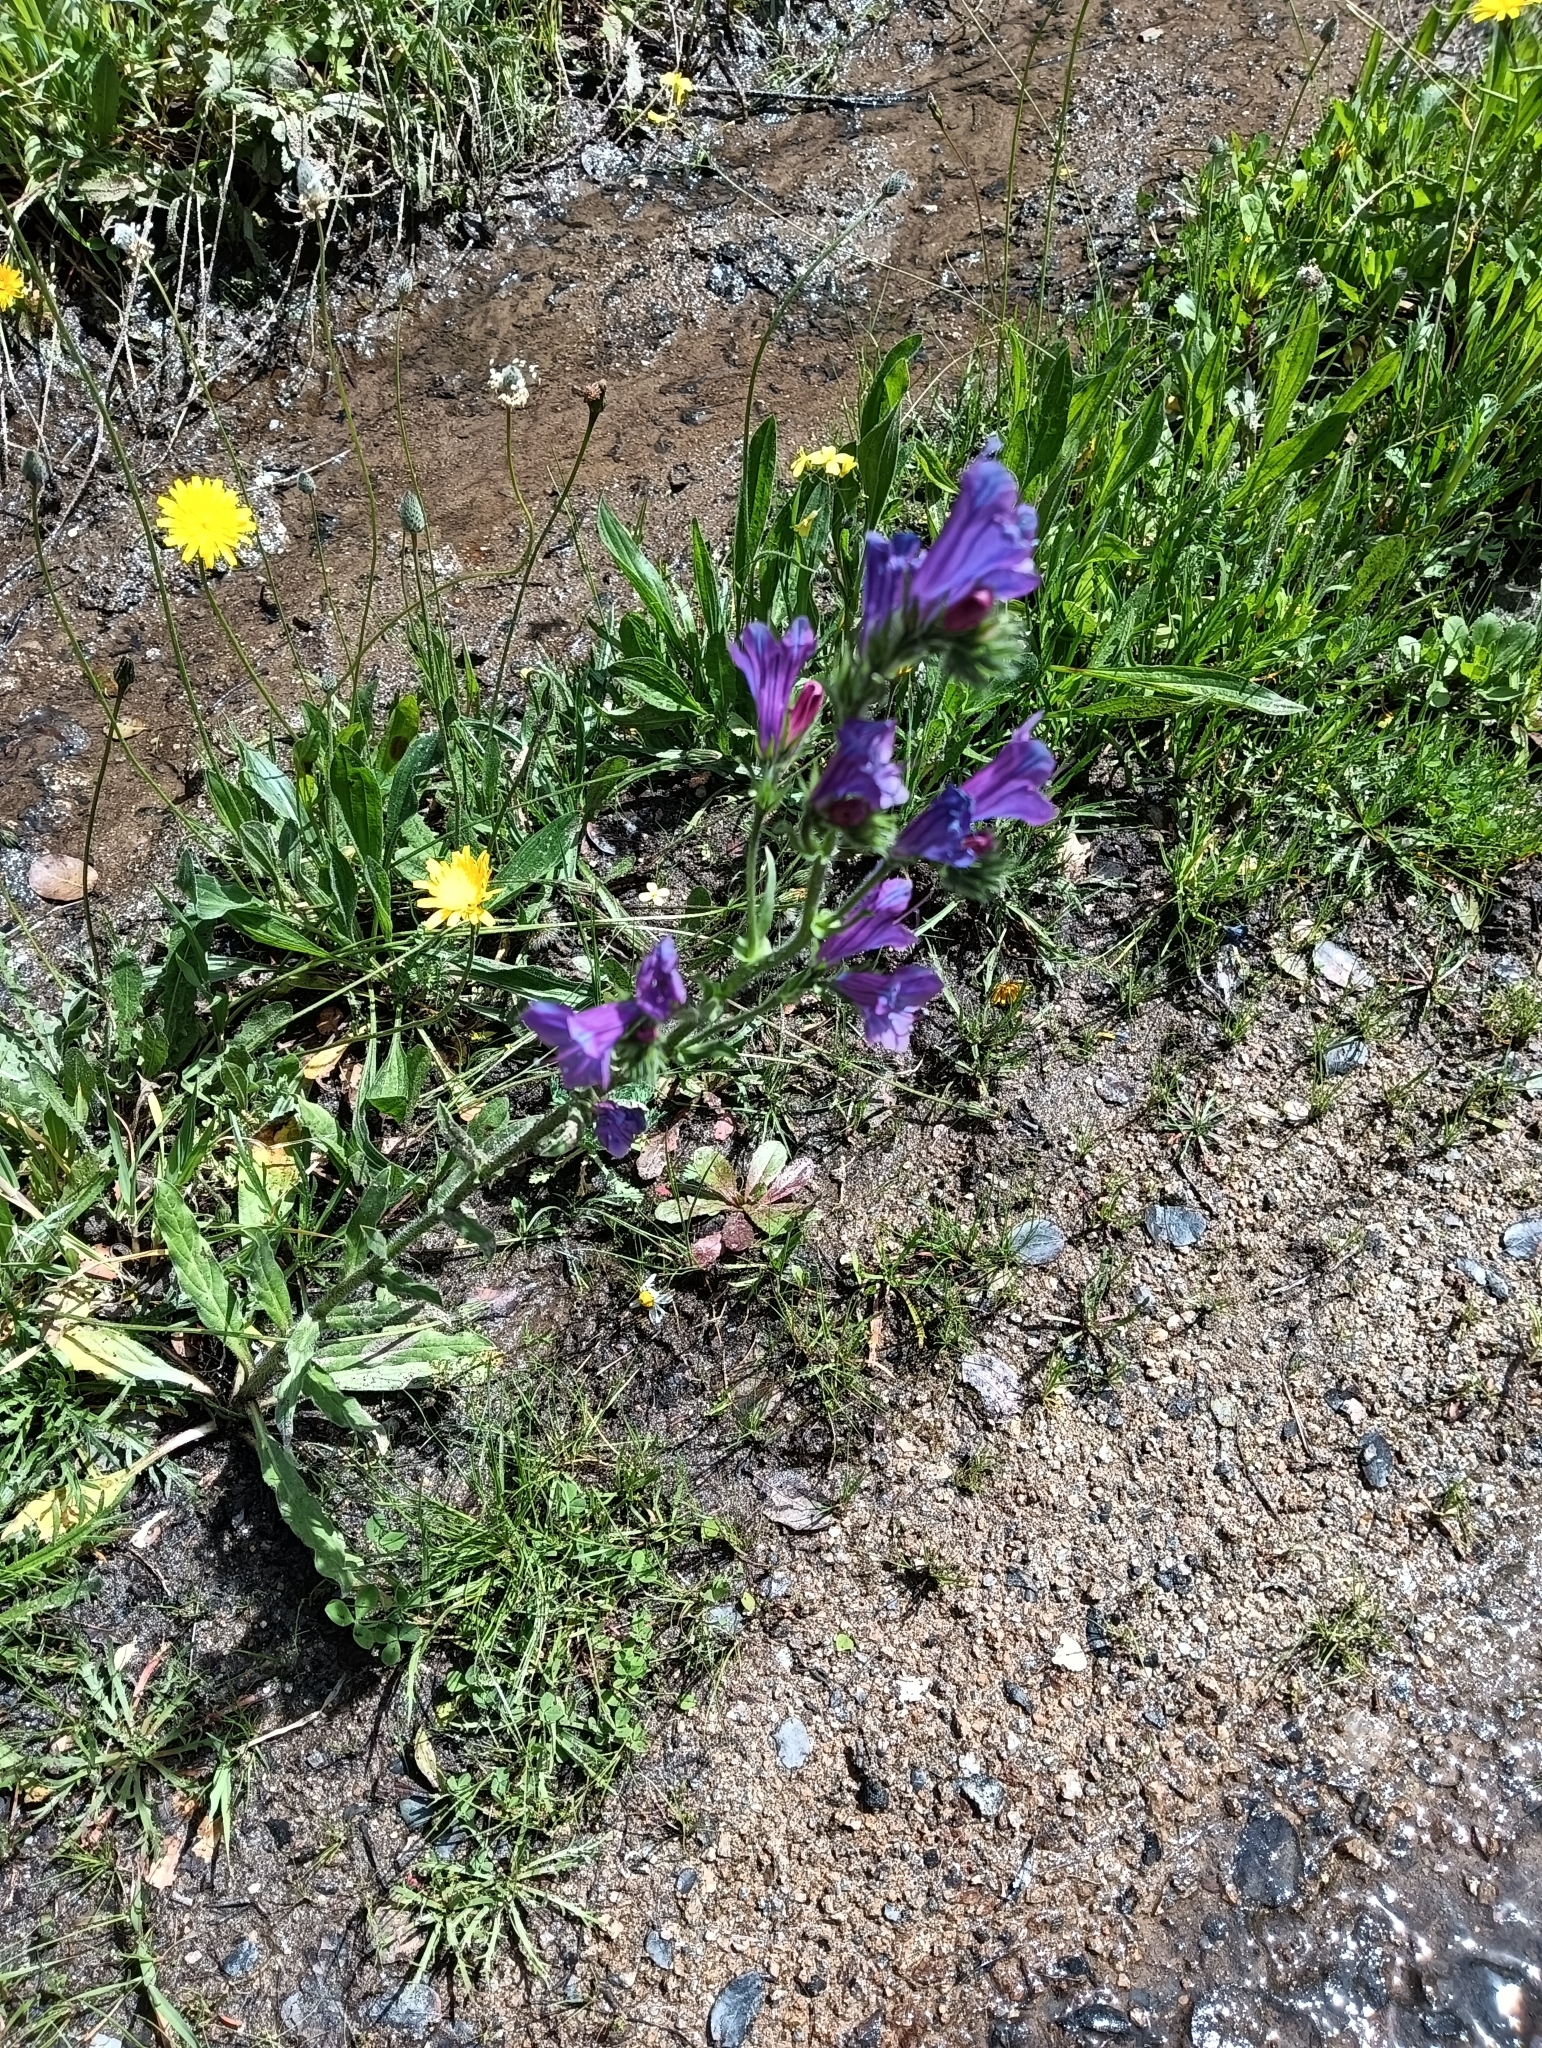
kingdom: Plantae
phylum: Tracheophyta
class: Magnoliopsida
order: Boraginales
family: Boraginaceae
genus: Echium
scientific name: Echium plantagineum
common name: Purple viper's-bugloss
